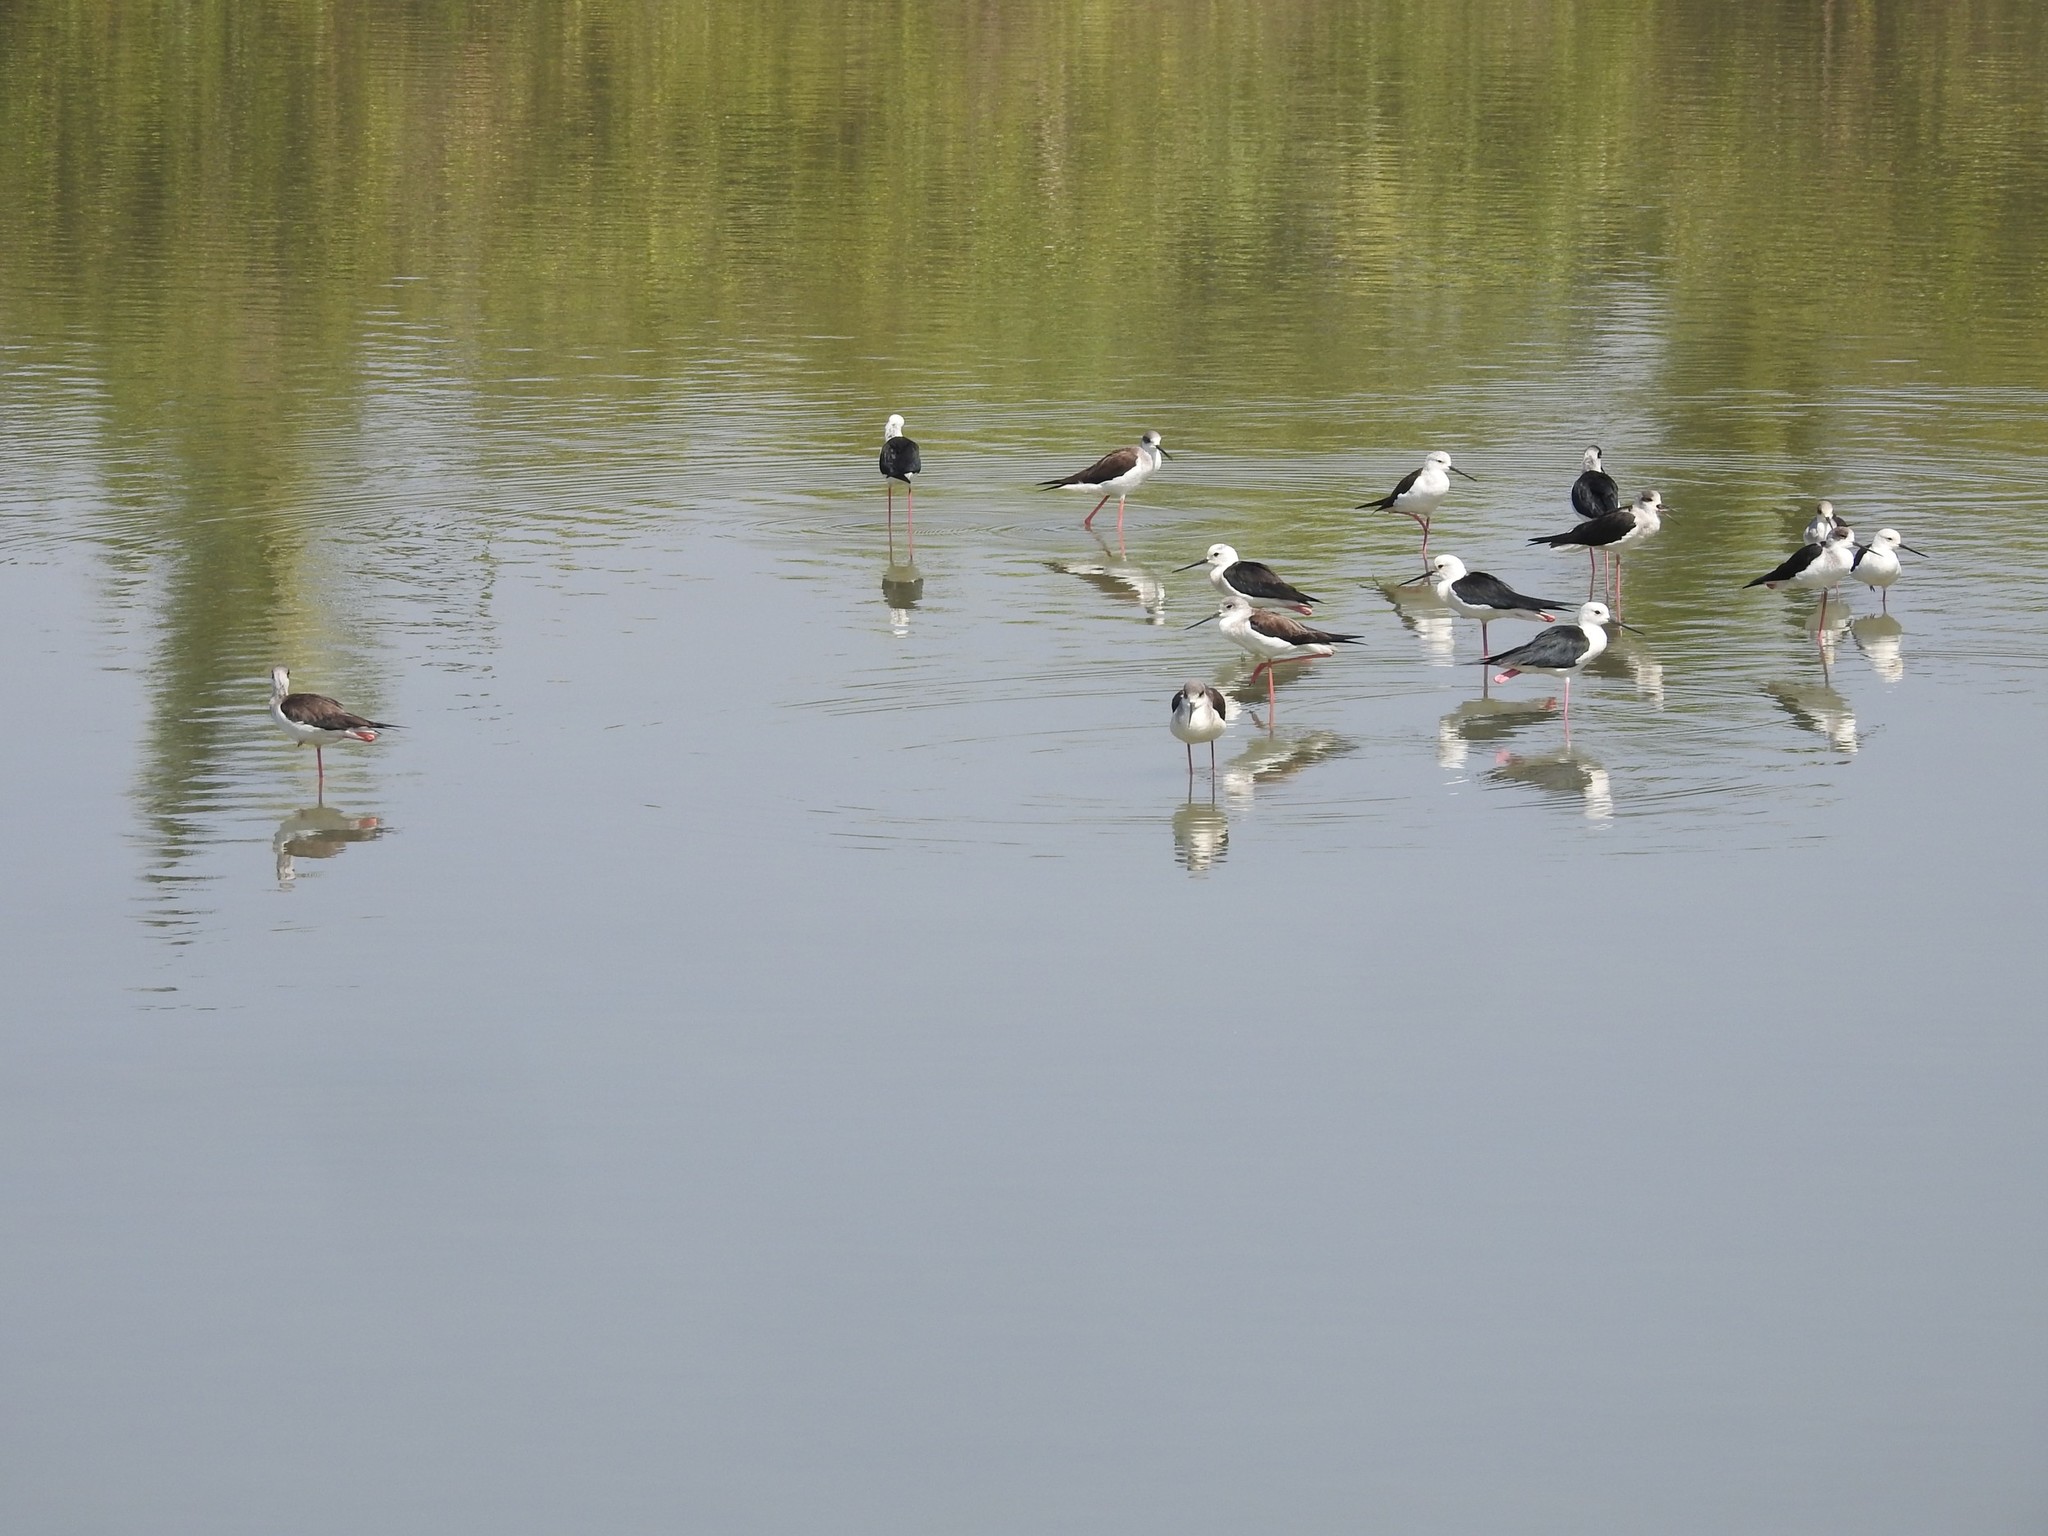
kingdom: Animalia
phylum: Chordata
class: Aves
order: Charadriiformes
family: Recurvirostridae
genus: Himantopus
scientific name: Himantopus himantopus
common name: Black-winged stilt
